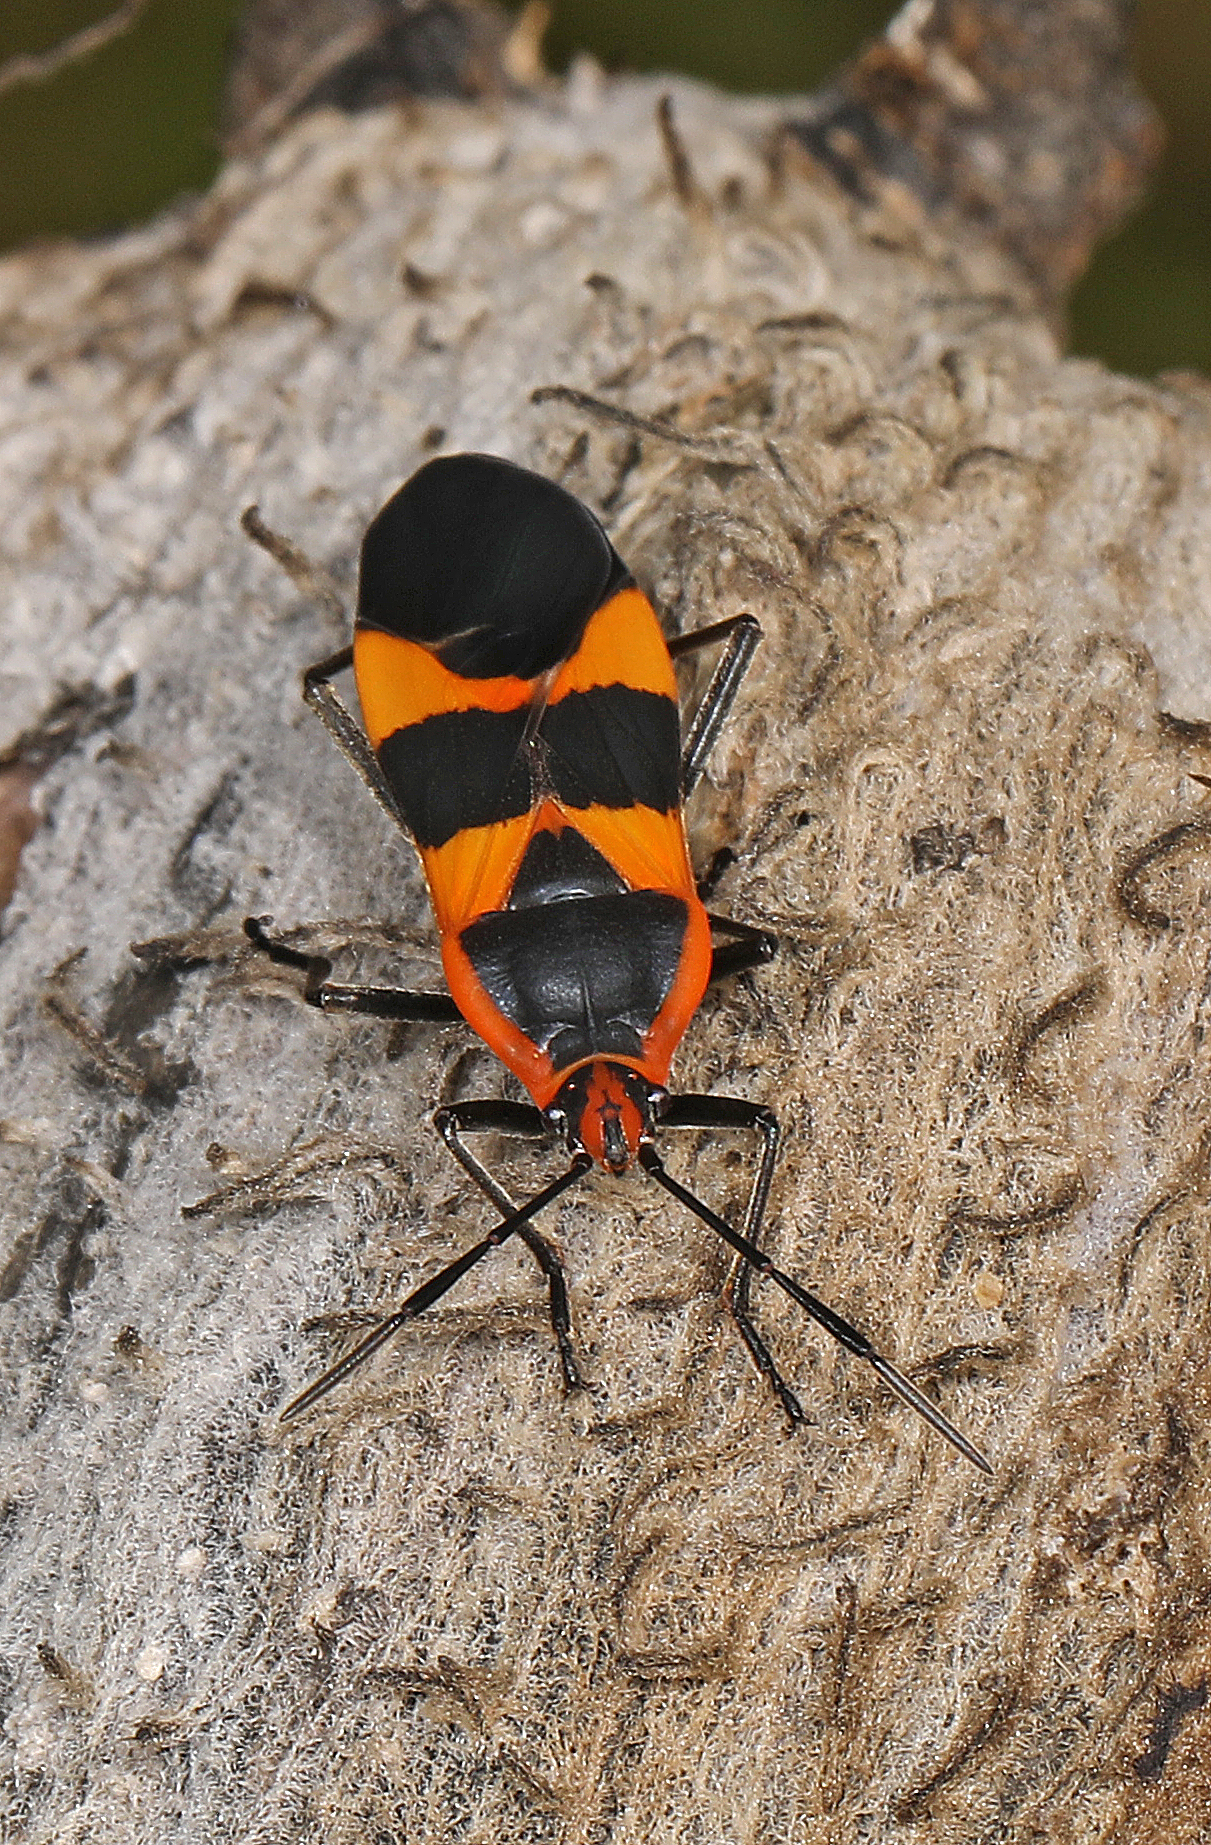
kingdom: Animalia
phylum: Arthropoda
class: Insecta
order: Hemiptera
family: Lygaeidae
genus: Oncopeltus
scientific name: Oncopeltus fasciatus
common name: Large milkweed bug
